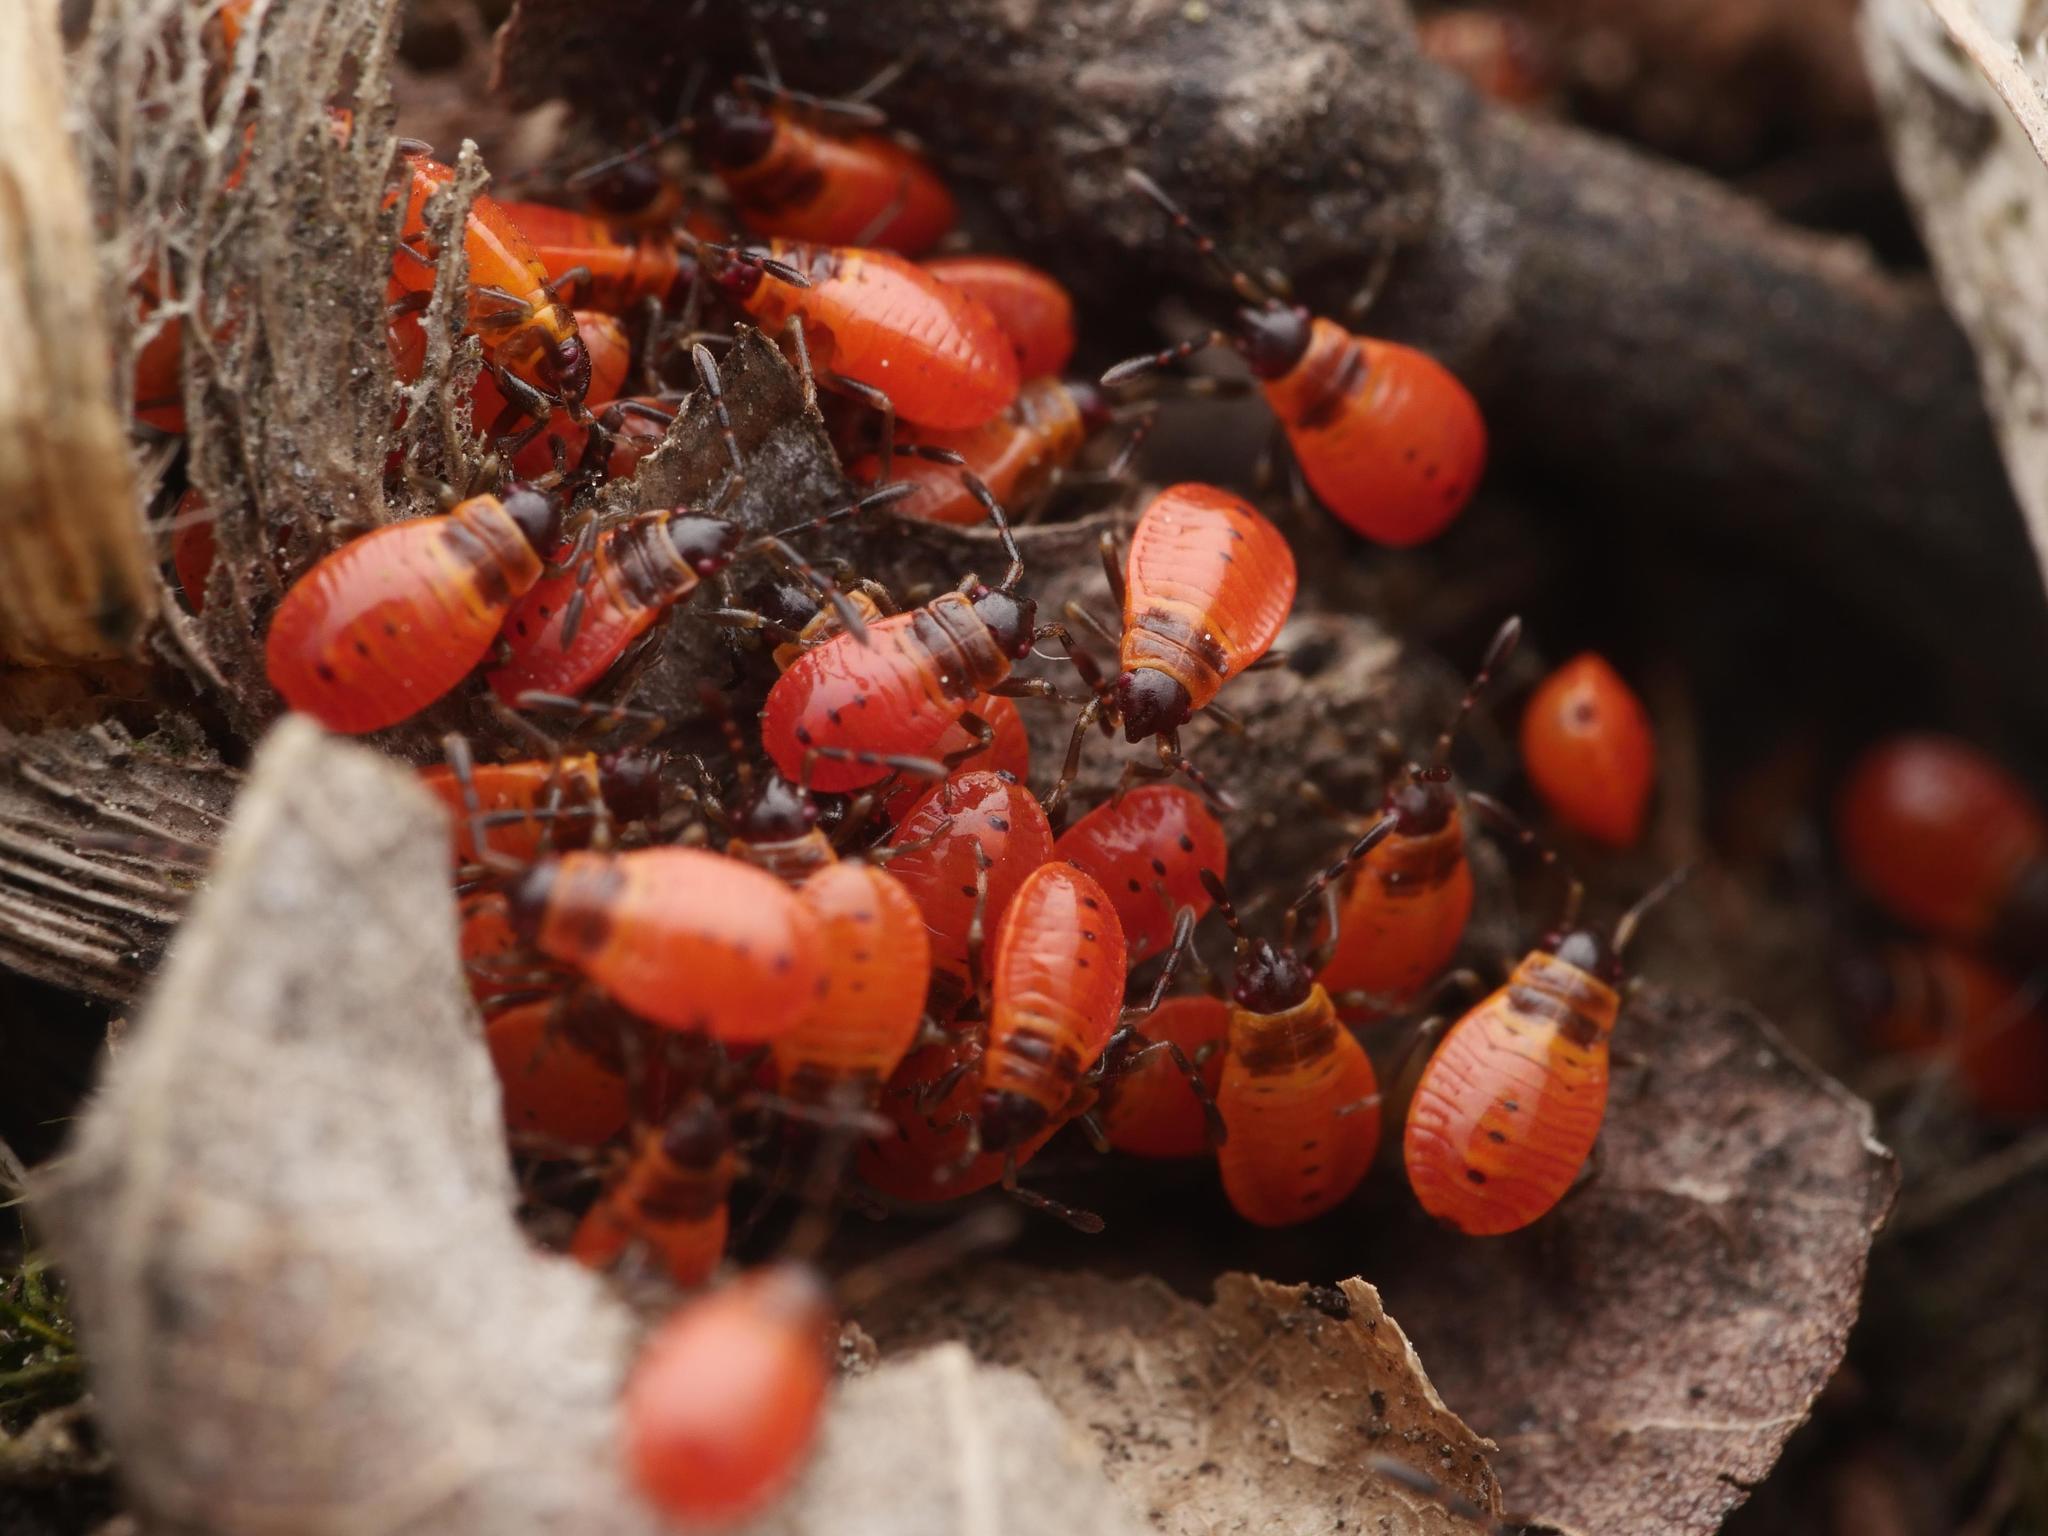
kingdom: Animalia
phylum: Arthropoda
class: Insecta
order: Hemiptera
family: Pyrrhocoridae
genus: Pyrrhocoris
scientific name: Pyrrhocoris apterus
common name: Firebug
